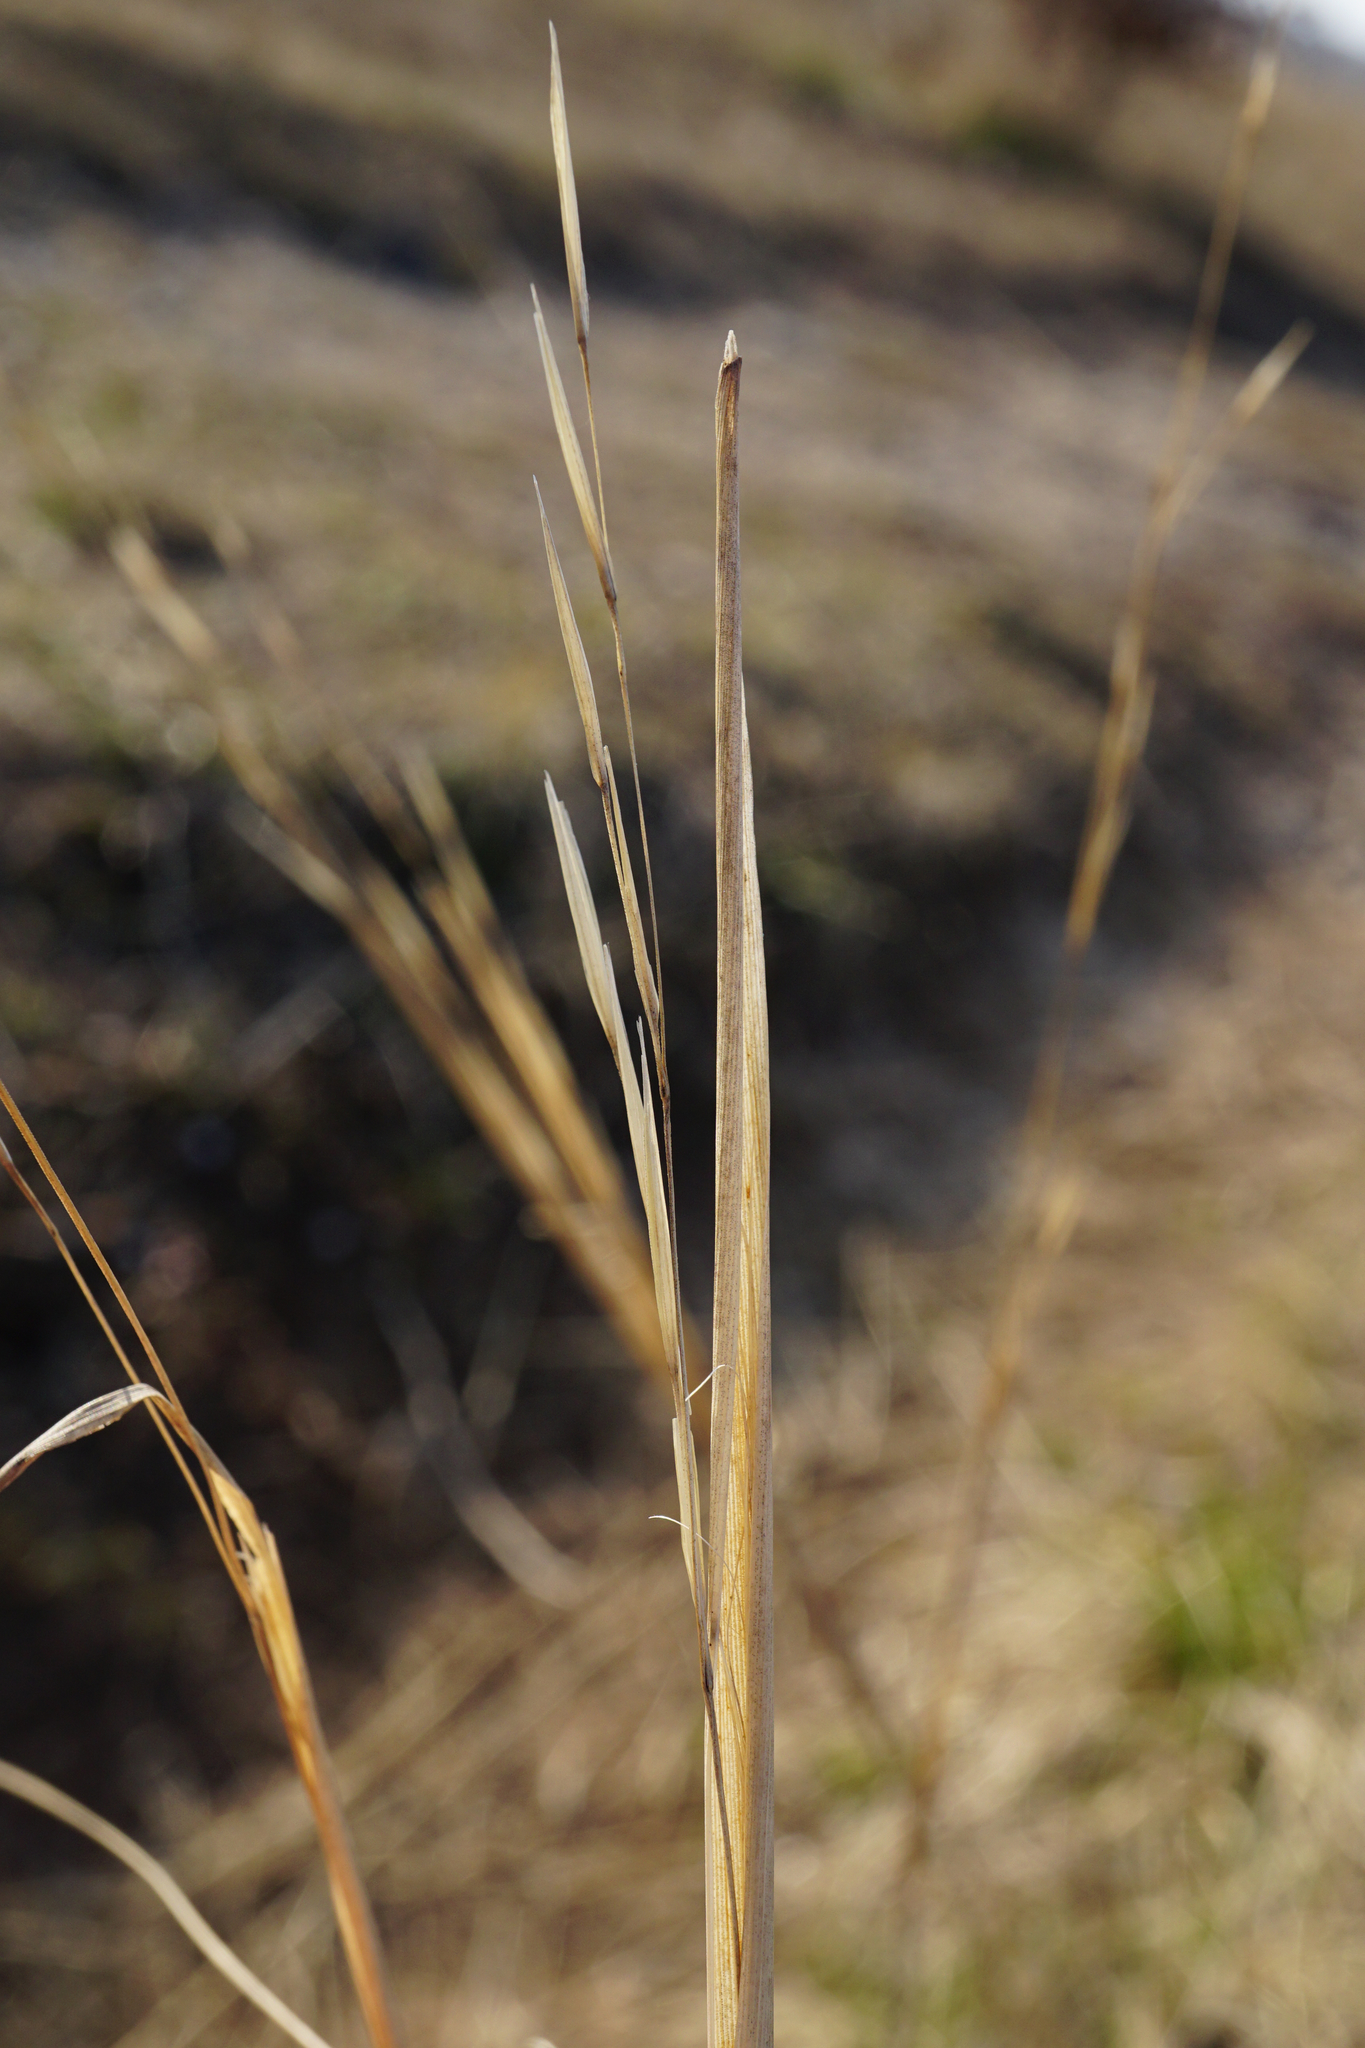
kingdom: Plantae
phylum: Tracheophyta
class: Liliopsida
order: Poales
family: Poaceae
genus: Stipa
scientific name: Stipa capillata
